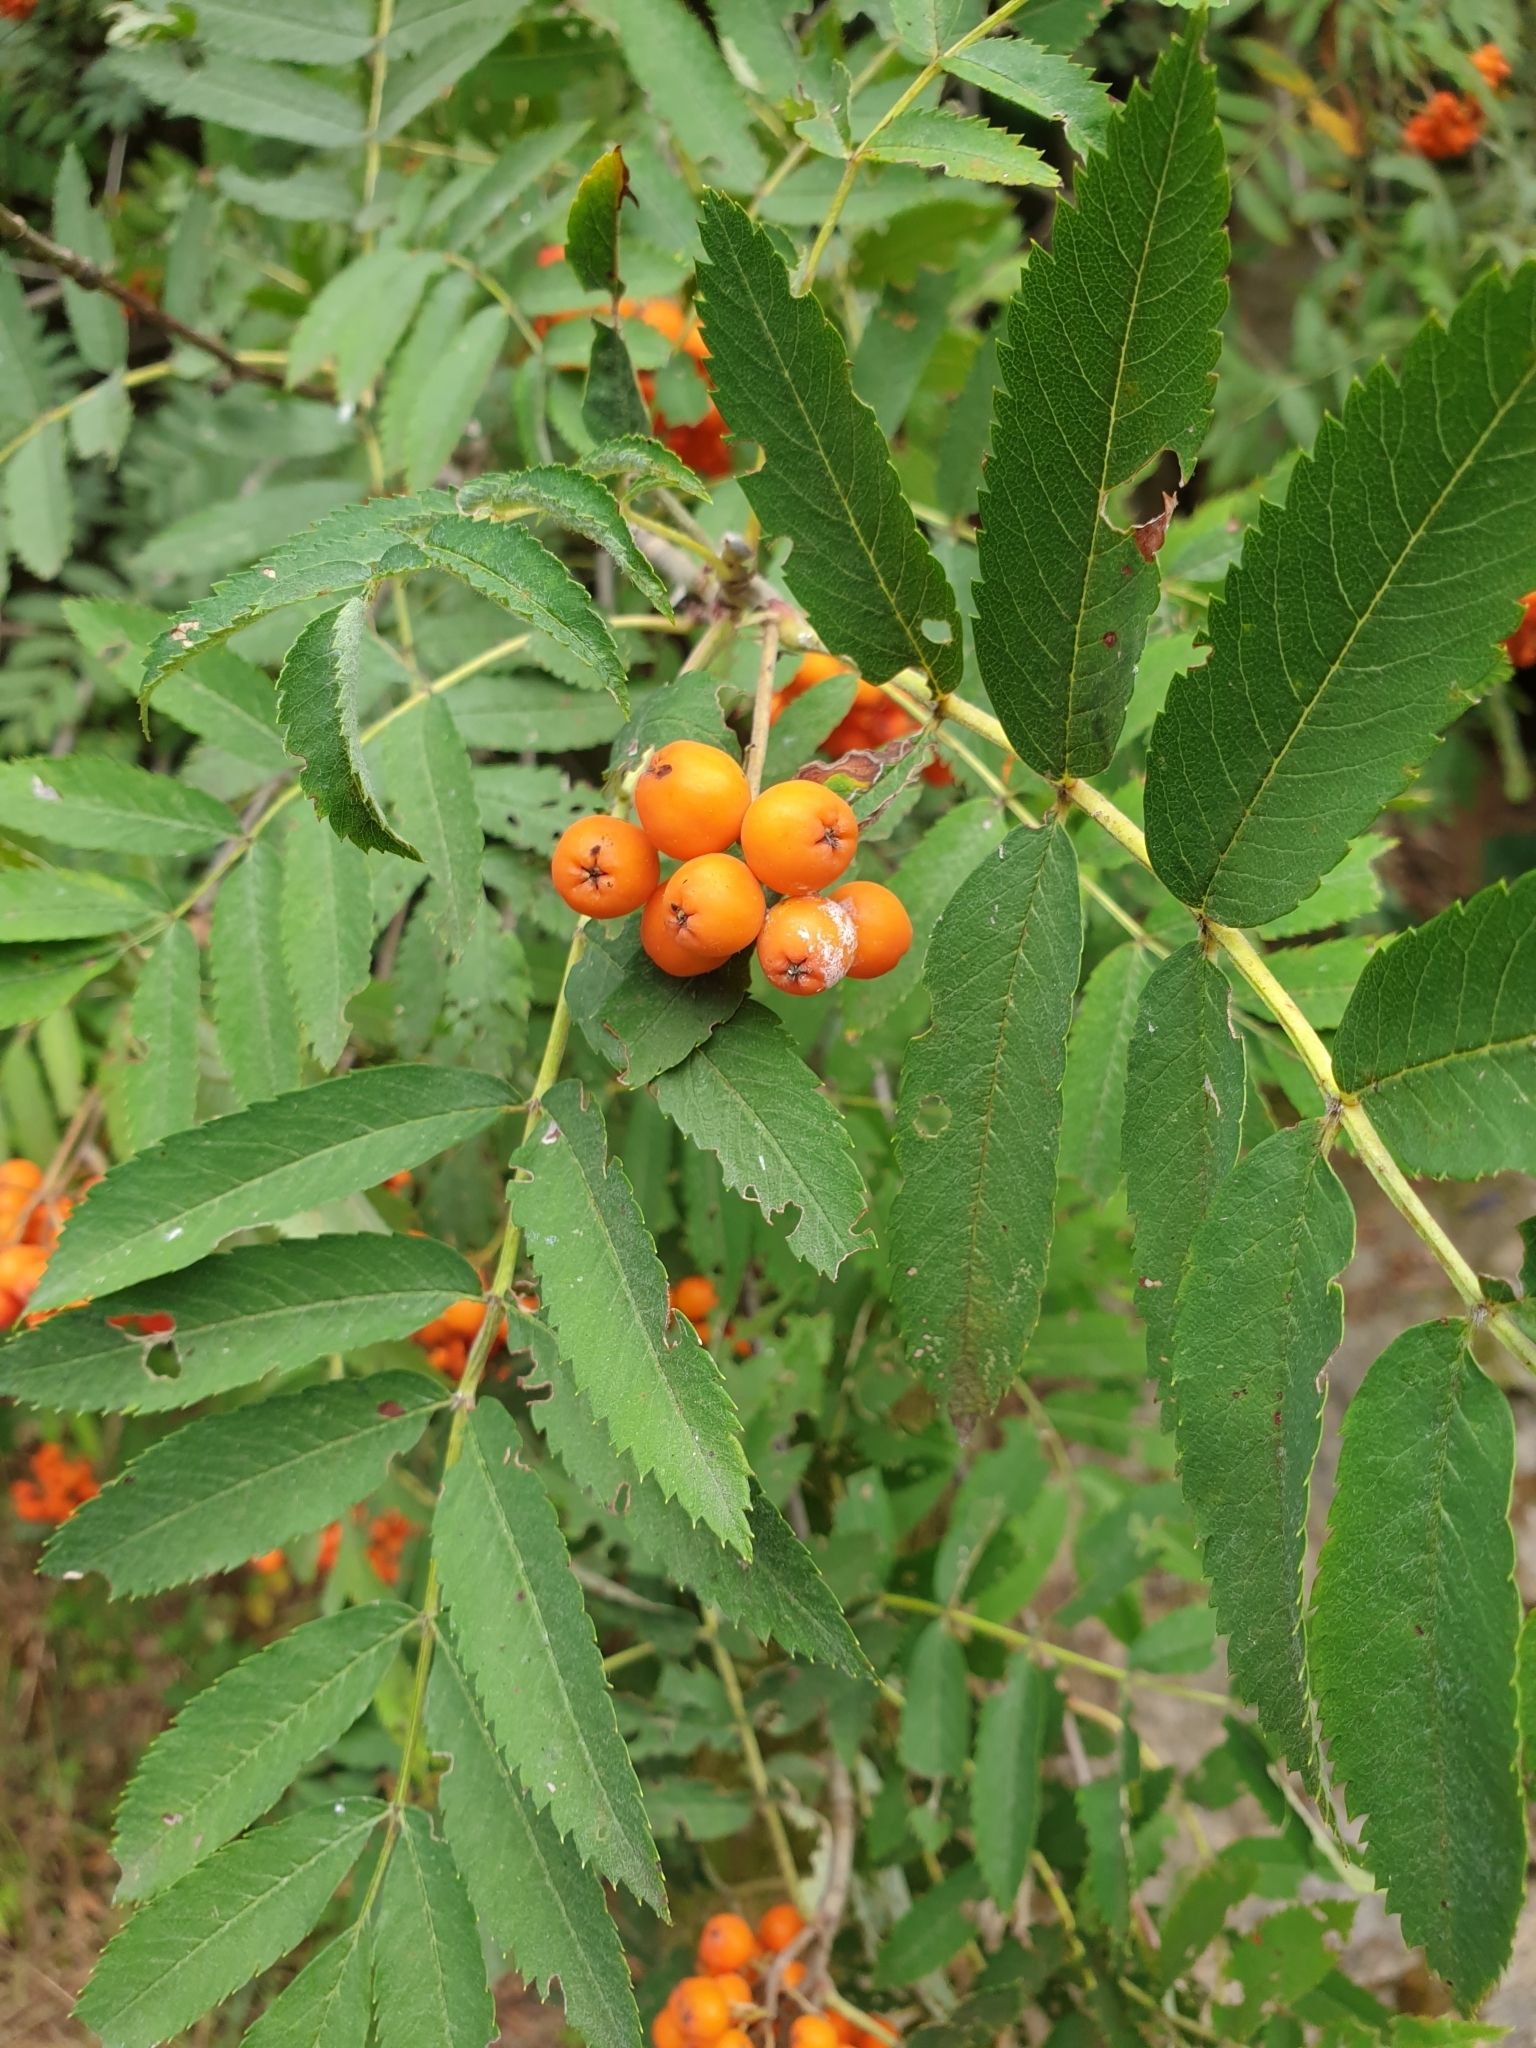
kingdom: Plantae
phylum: Tracheophyta
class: Magnoliopsida
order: Rosales
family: Rosaceae
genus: Sorbus
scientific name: Sorbus aucuparia
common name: Rowan
